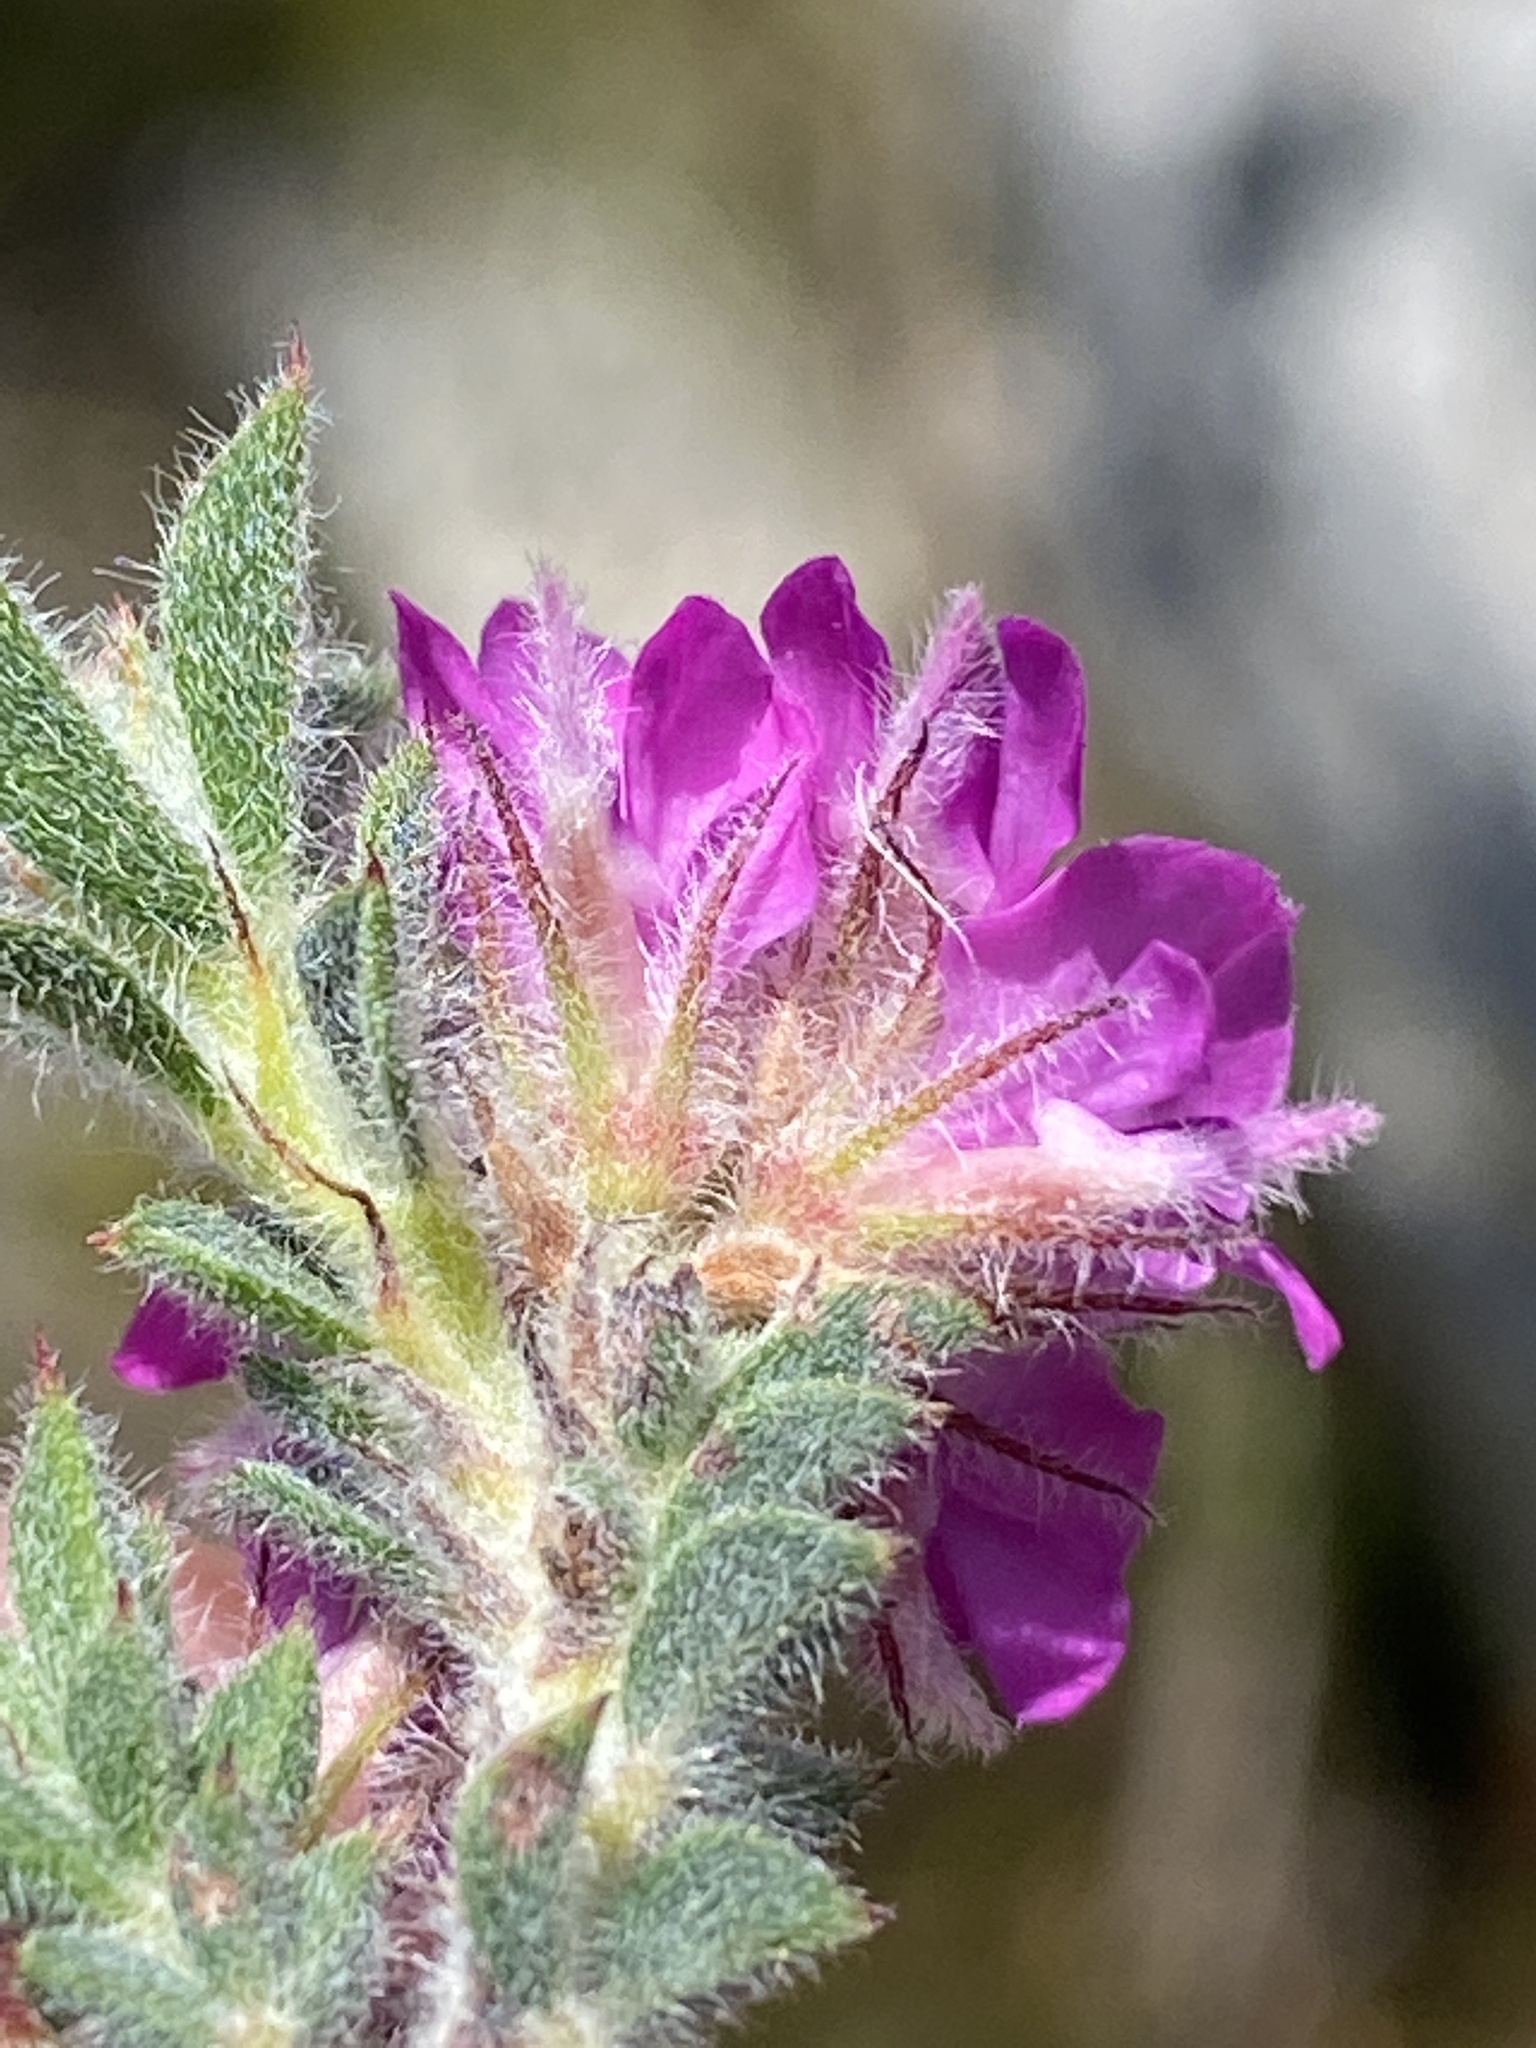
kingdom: Plantae
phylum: Tracheophyta
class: Magnoliopsida
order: Fabales
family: Fabaceae
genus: Indigofera
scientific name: Indigofera glomerata
